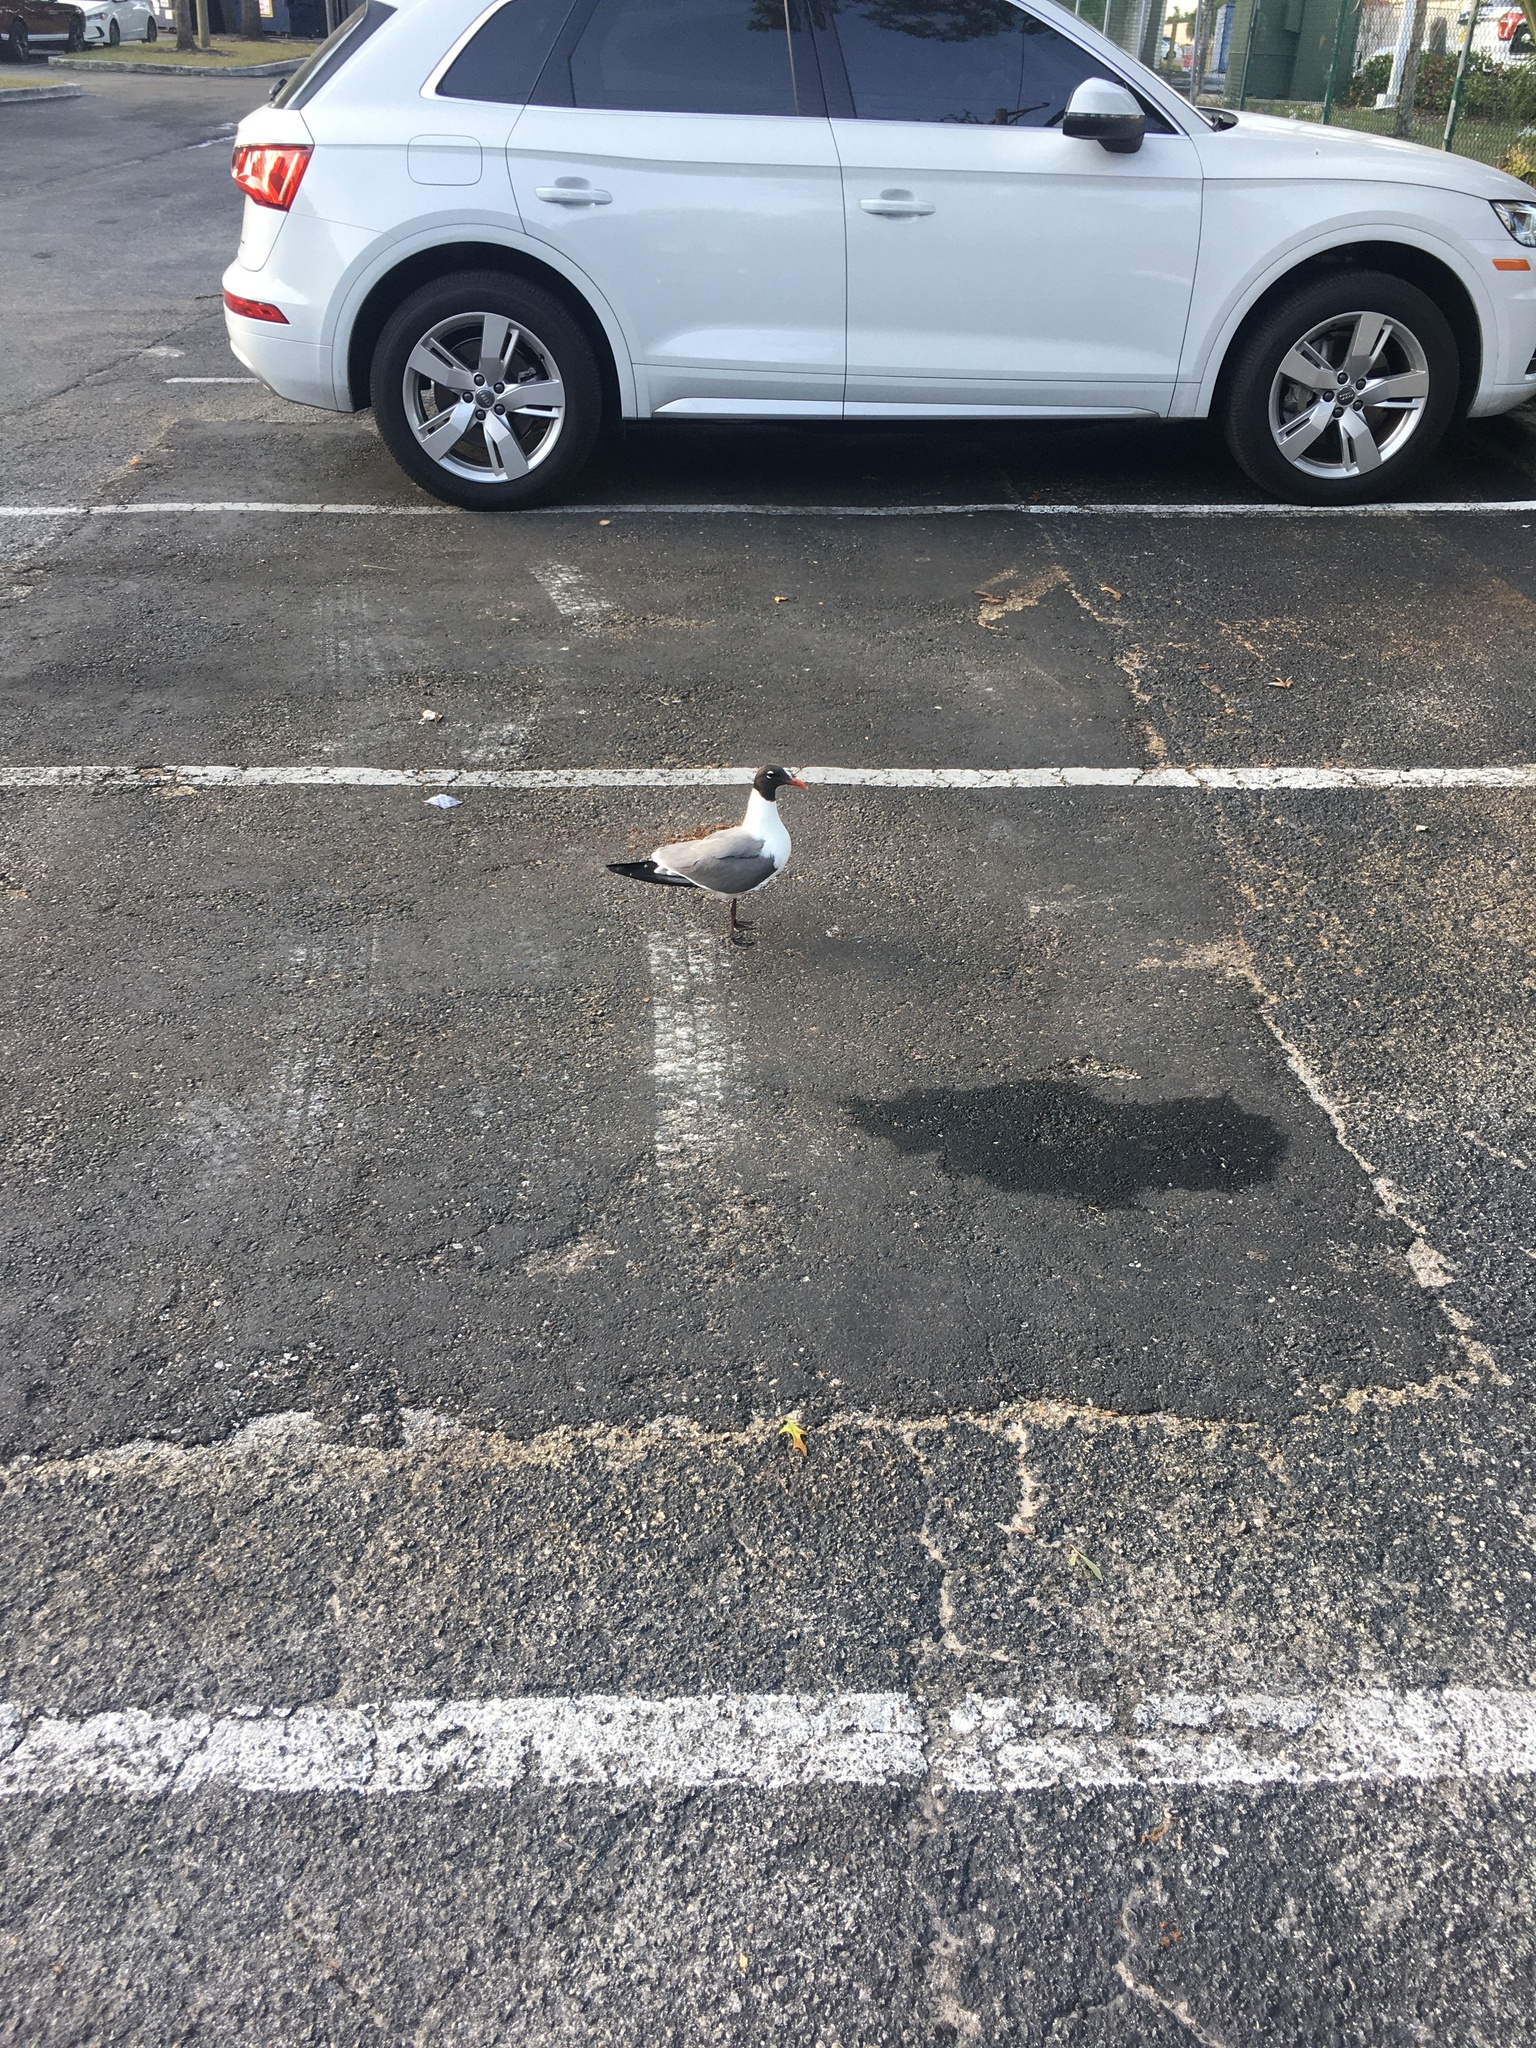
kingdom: Animalia
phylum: Chordata
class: Aves
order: Charadriiformes
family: Laridae
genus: Leucophaeus
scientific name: Leucophaeus atricilla
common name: Laughing gull
